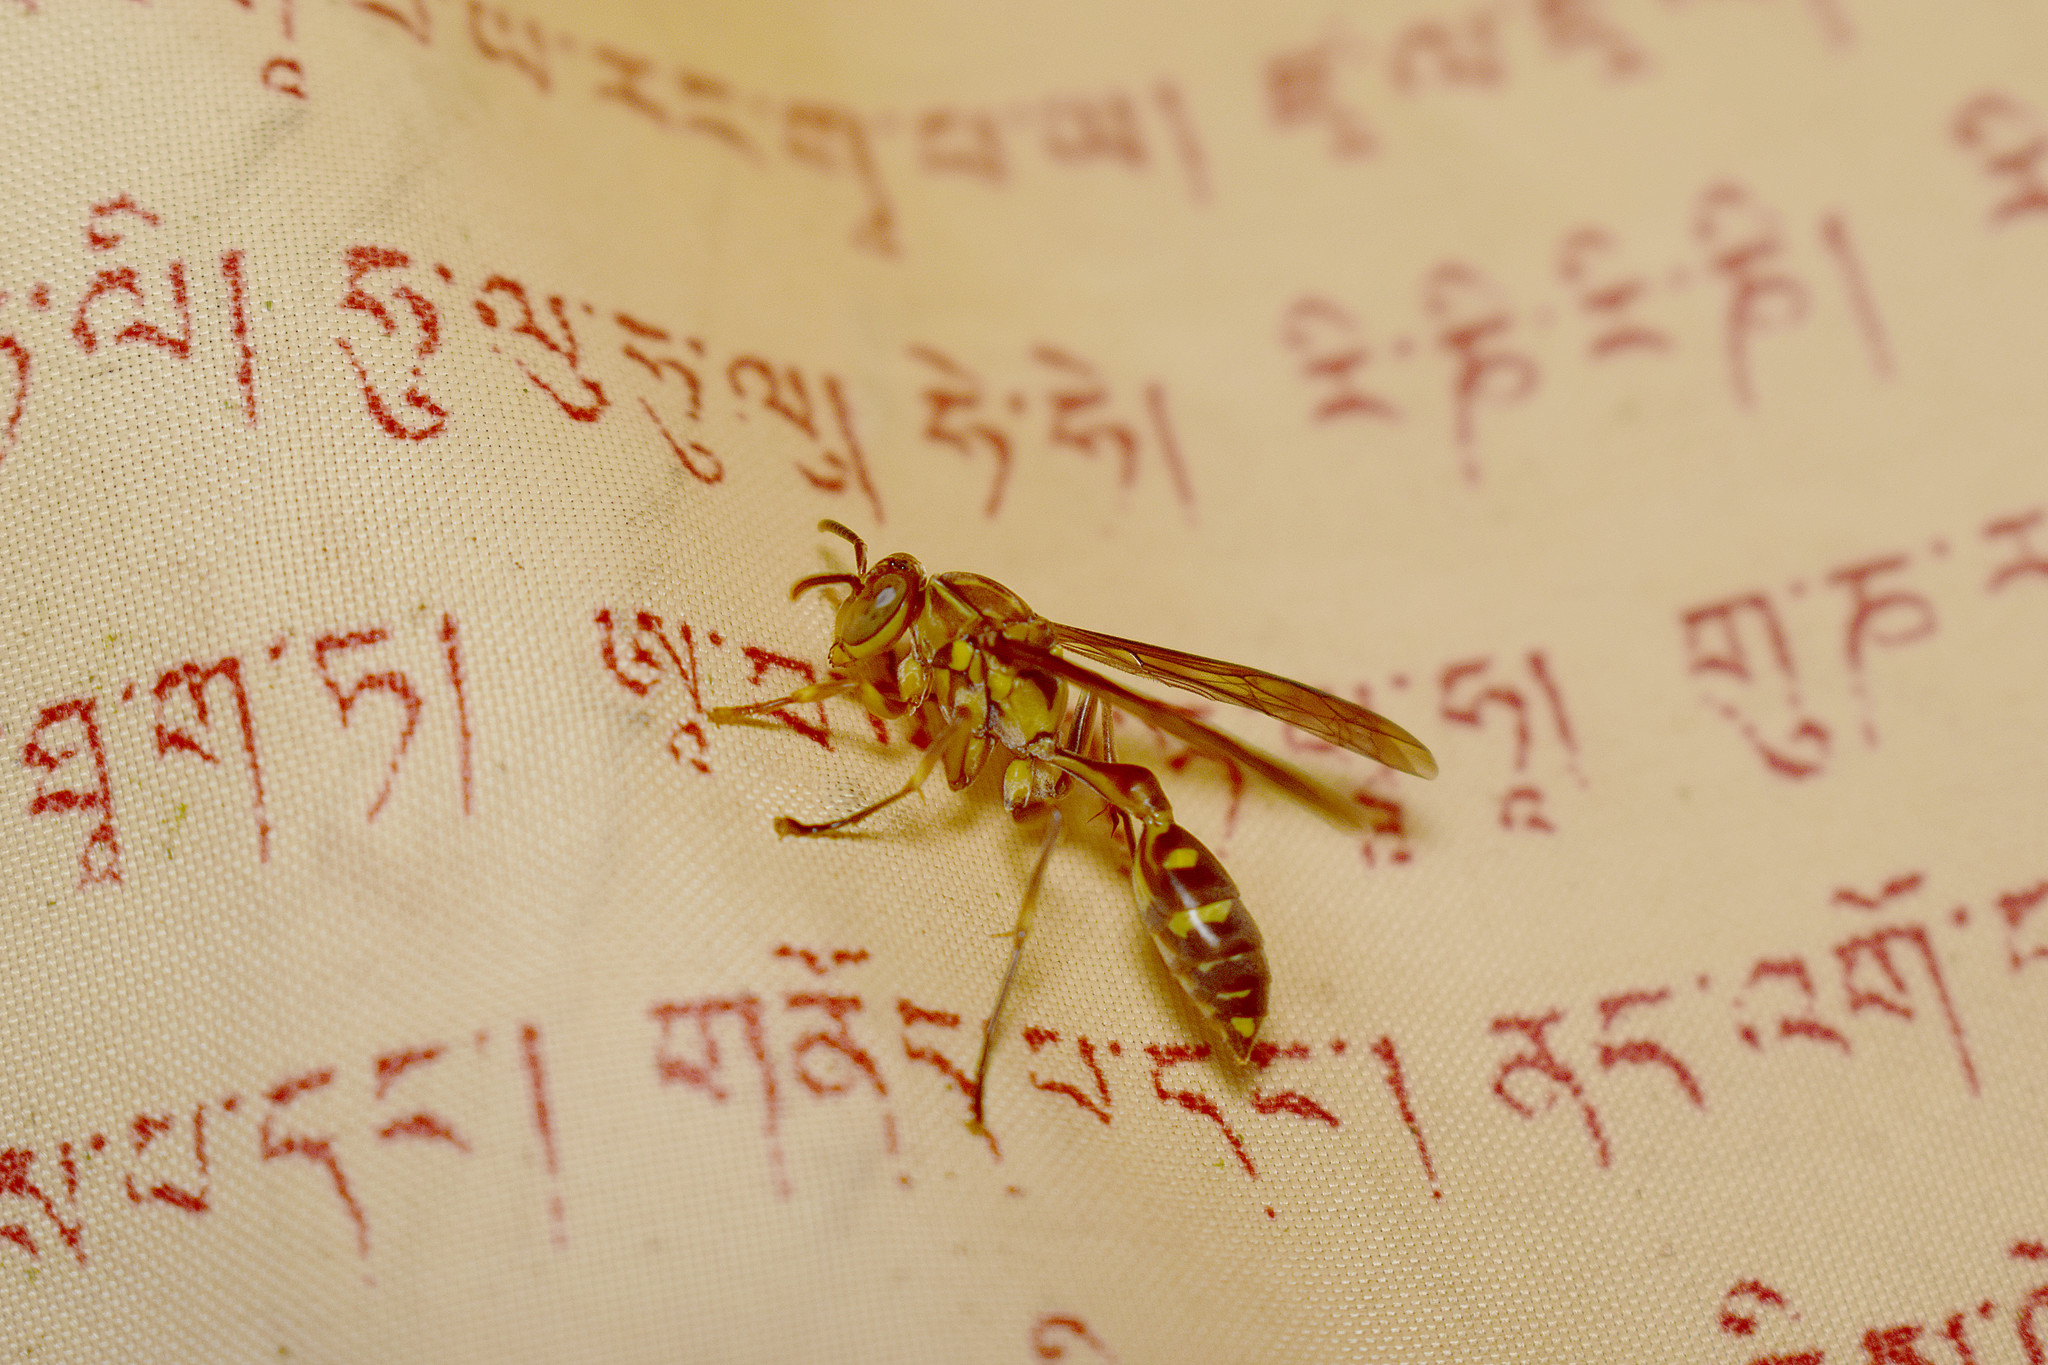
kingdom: Animalia
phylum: Arthropoda
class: Insecta
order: Hymenoptera
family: Vespidae
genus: Parapolybia
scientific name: Parapolybia varia
